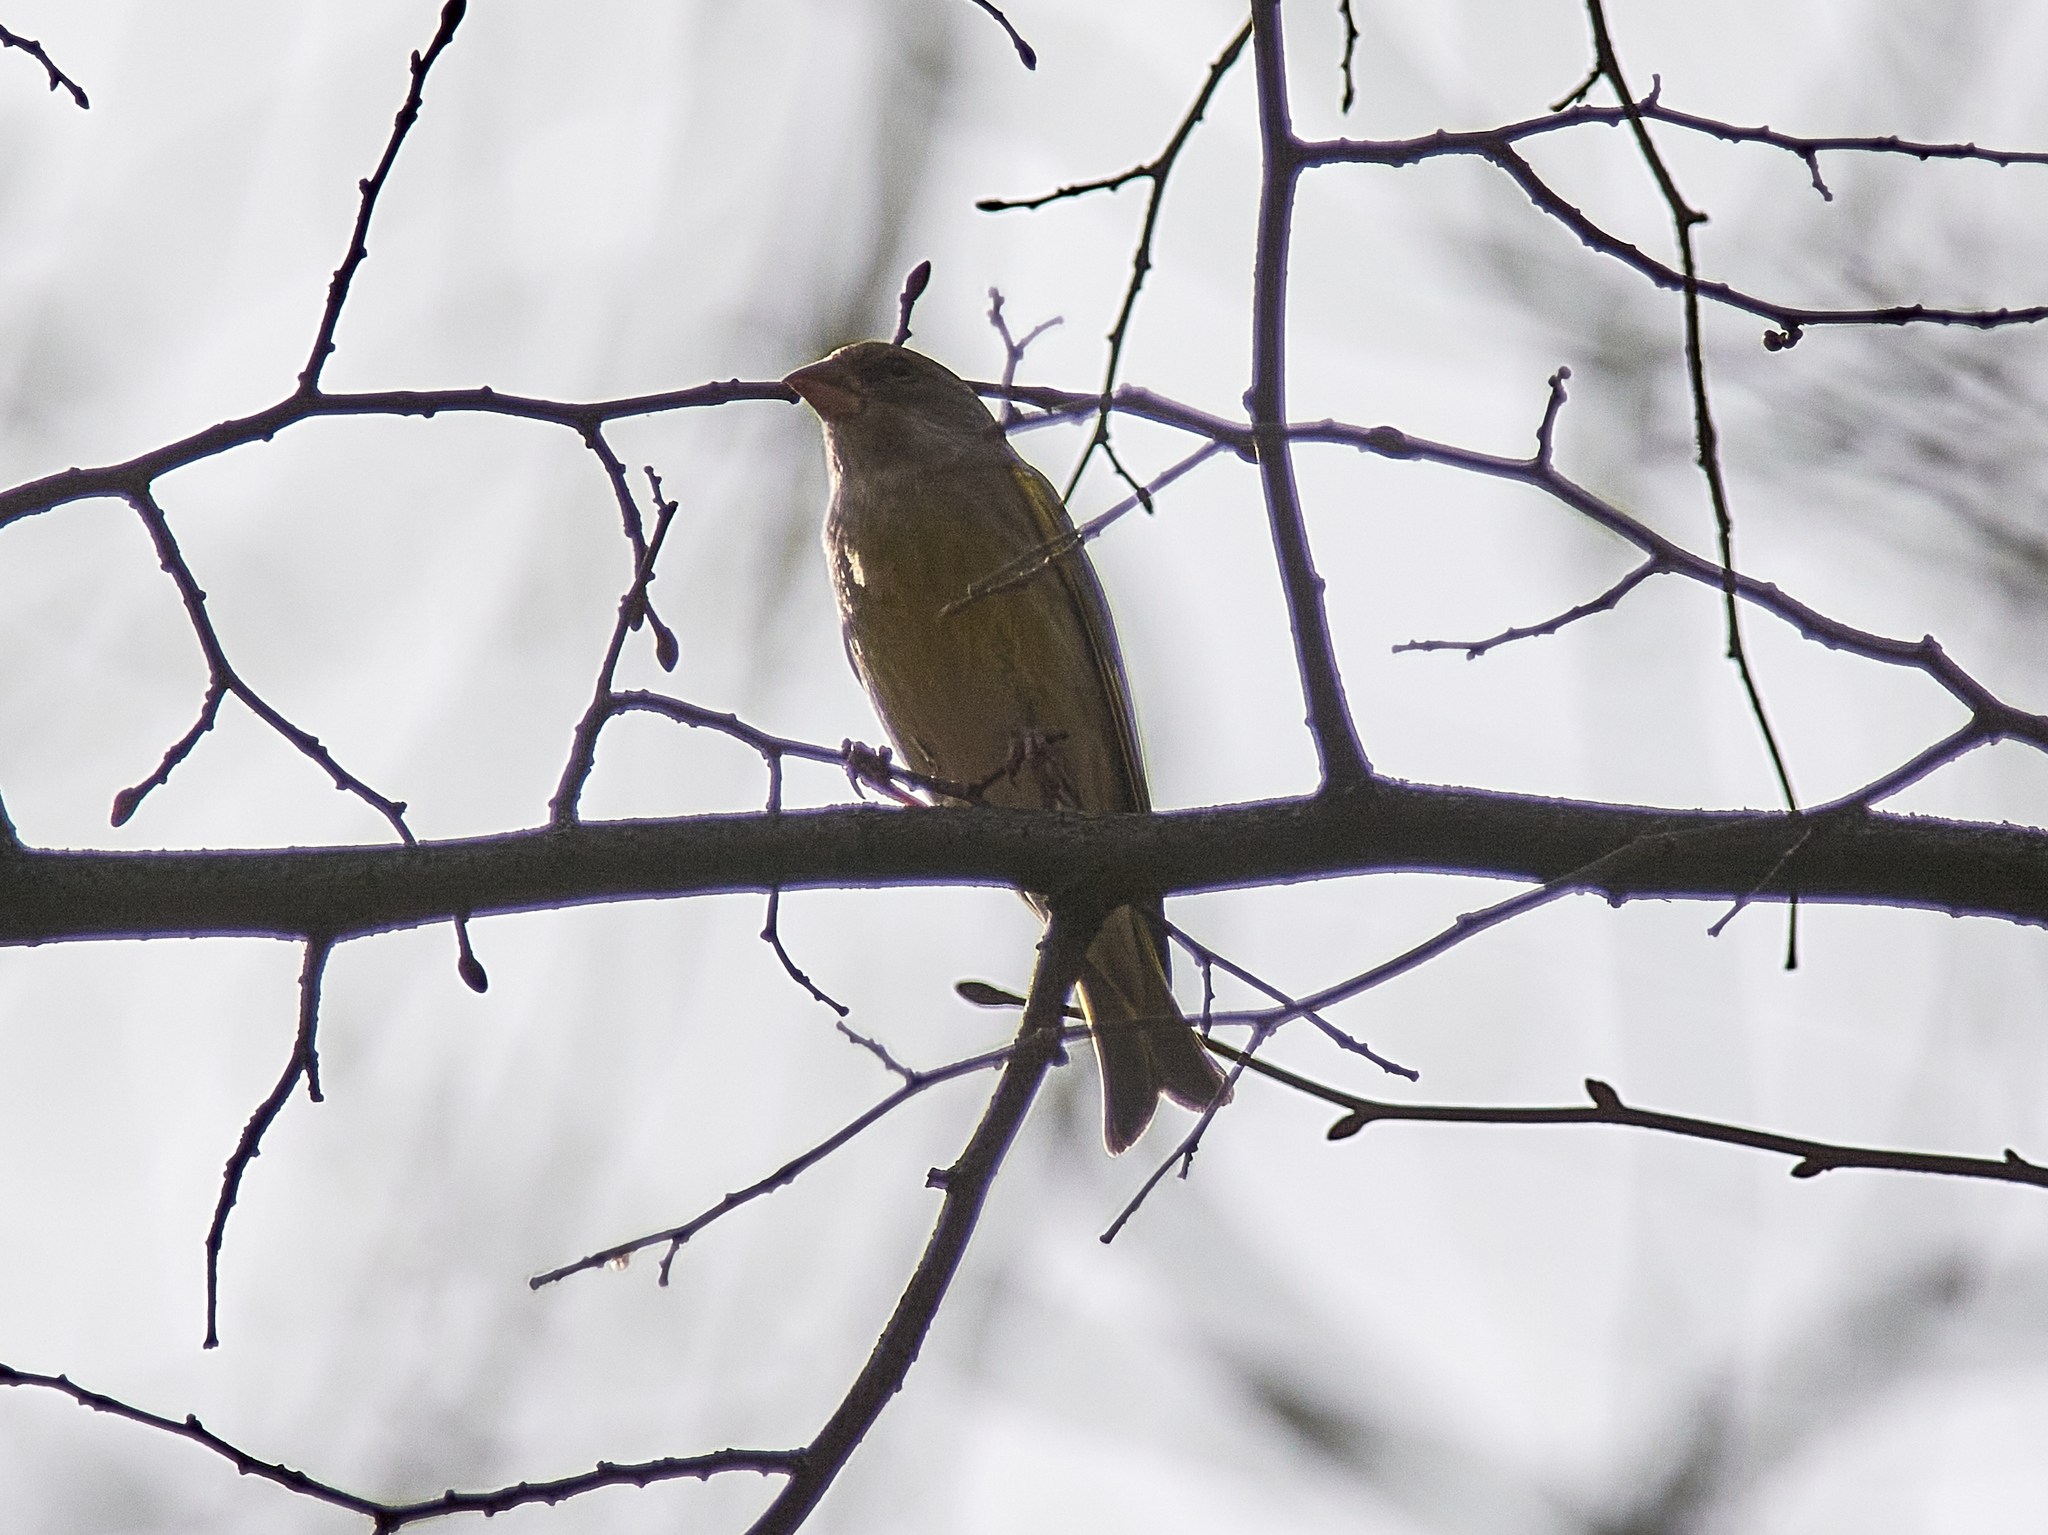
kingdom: Plantae
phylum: Tracheophyta
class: Liliopsida
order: Poales
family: Poaceae
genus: Chloris
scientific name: Chloris chloris
